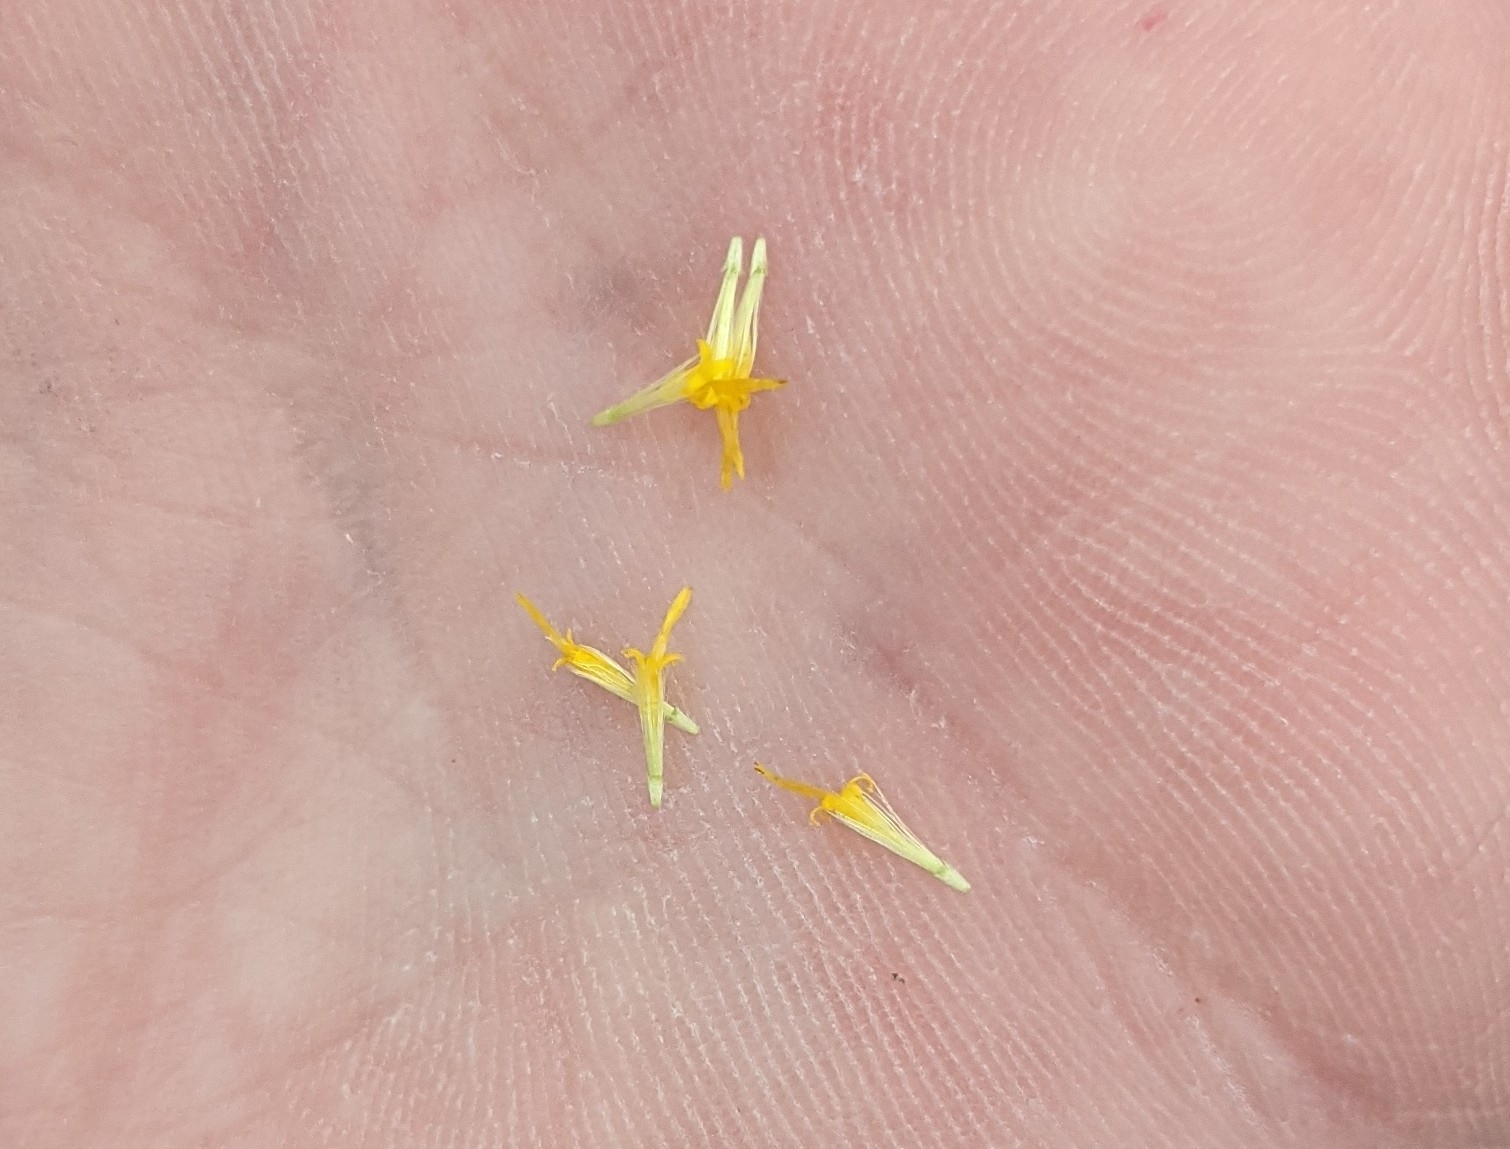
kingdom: Plantae
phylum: Tracheophyta
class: Magnoliopsida
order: Asterales
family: Asteraceae
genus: Euthamia
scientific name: Euthamia occidentalis
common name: Western goldentop
